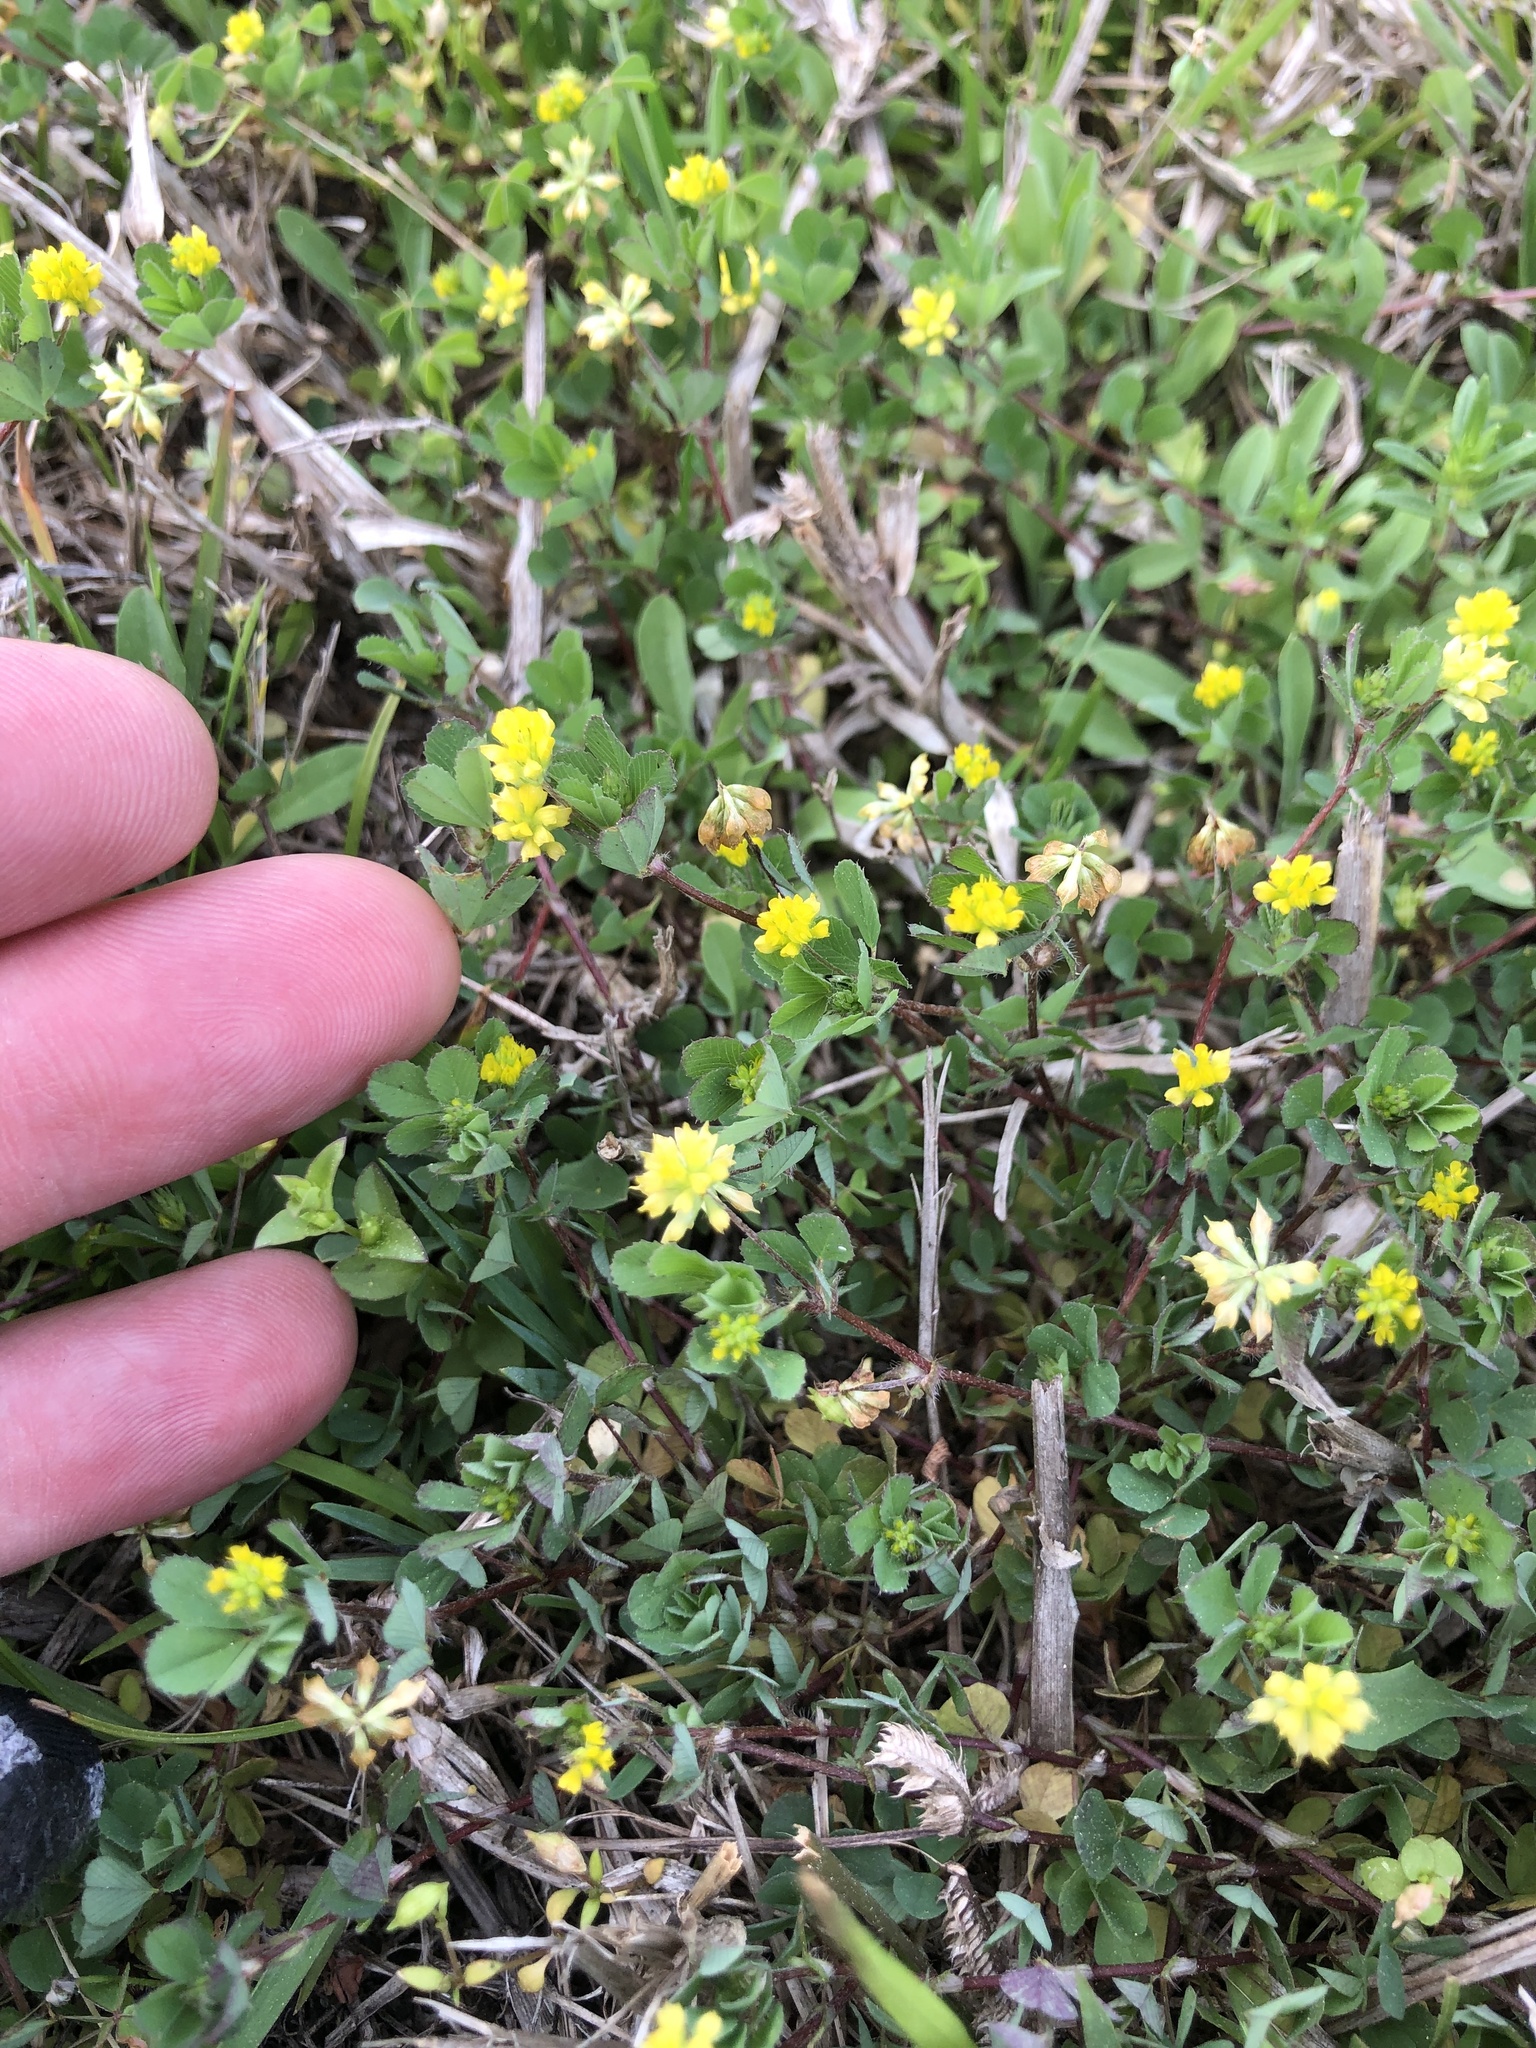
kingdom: Plantae
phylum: Tracheophyta
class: Magnoliopsida
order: Fabales
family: Fabaceae
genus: Trifolium
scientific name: Trifolium dubium
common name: Suckling clover
